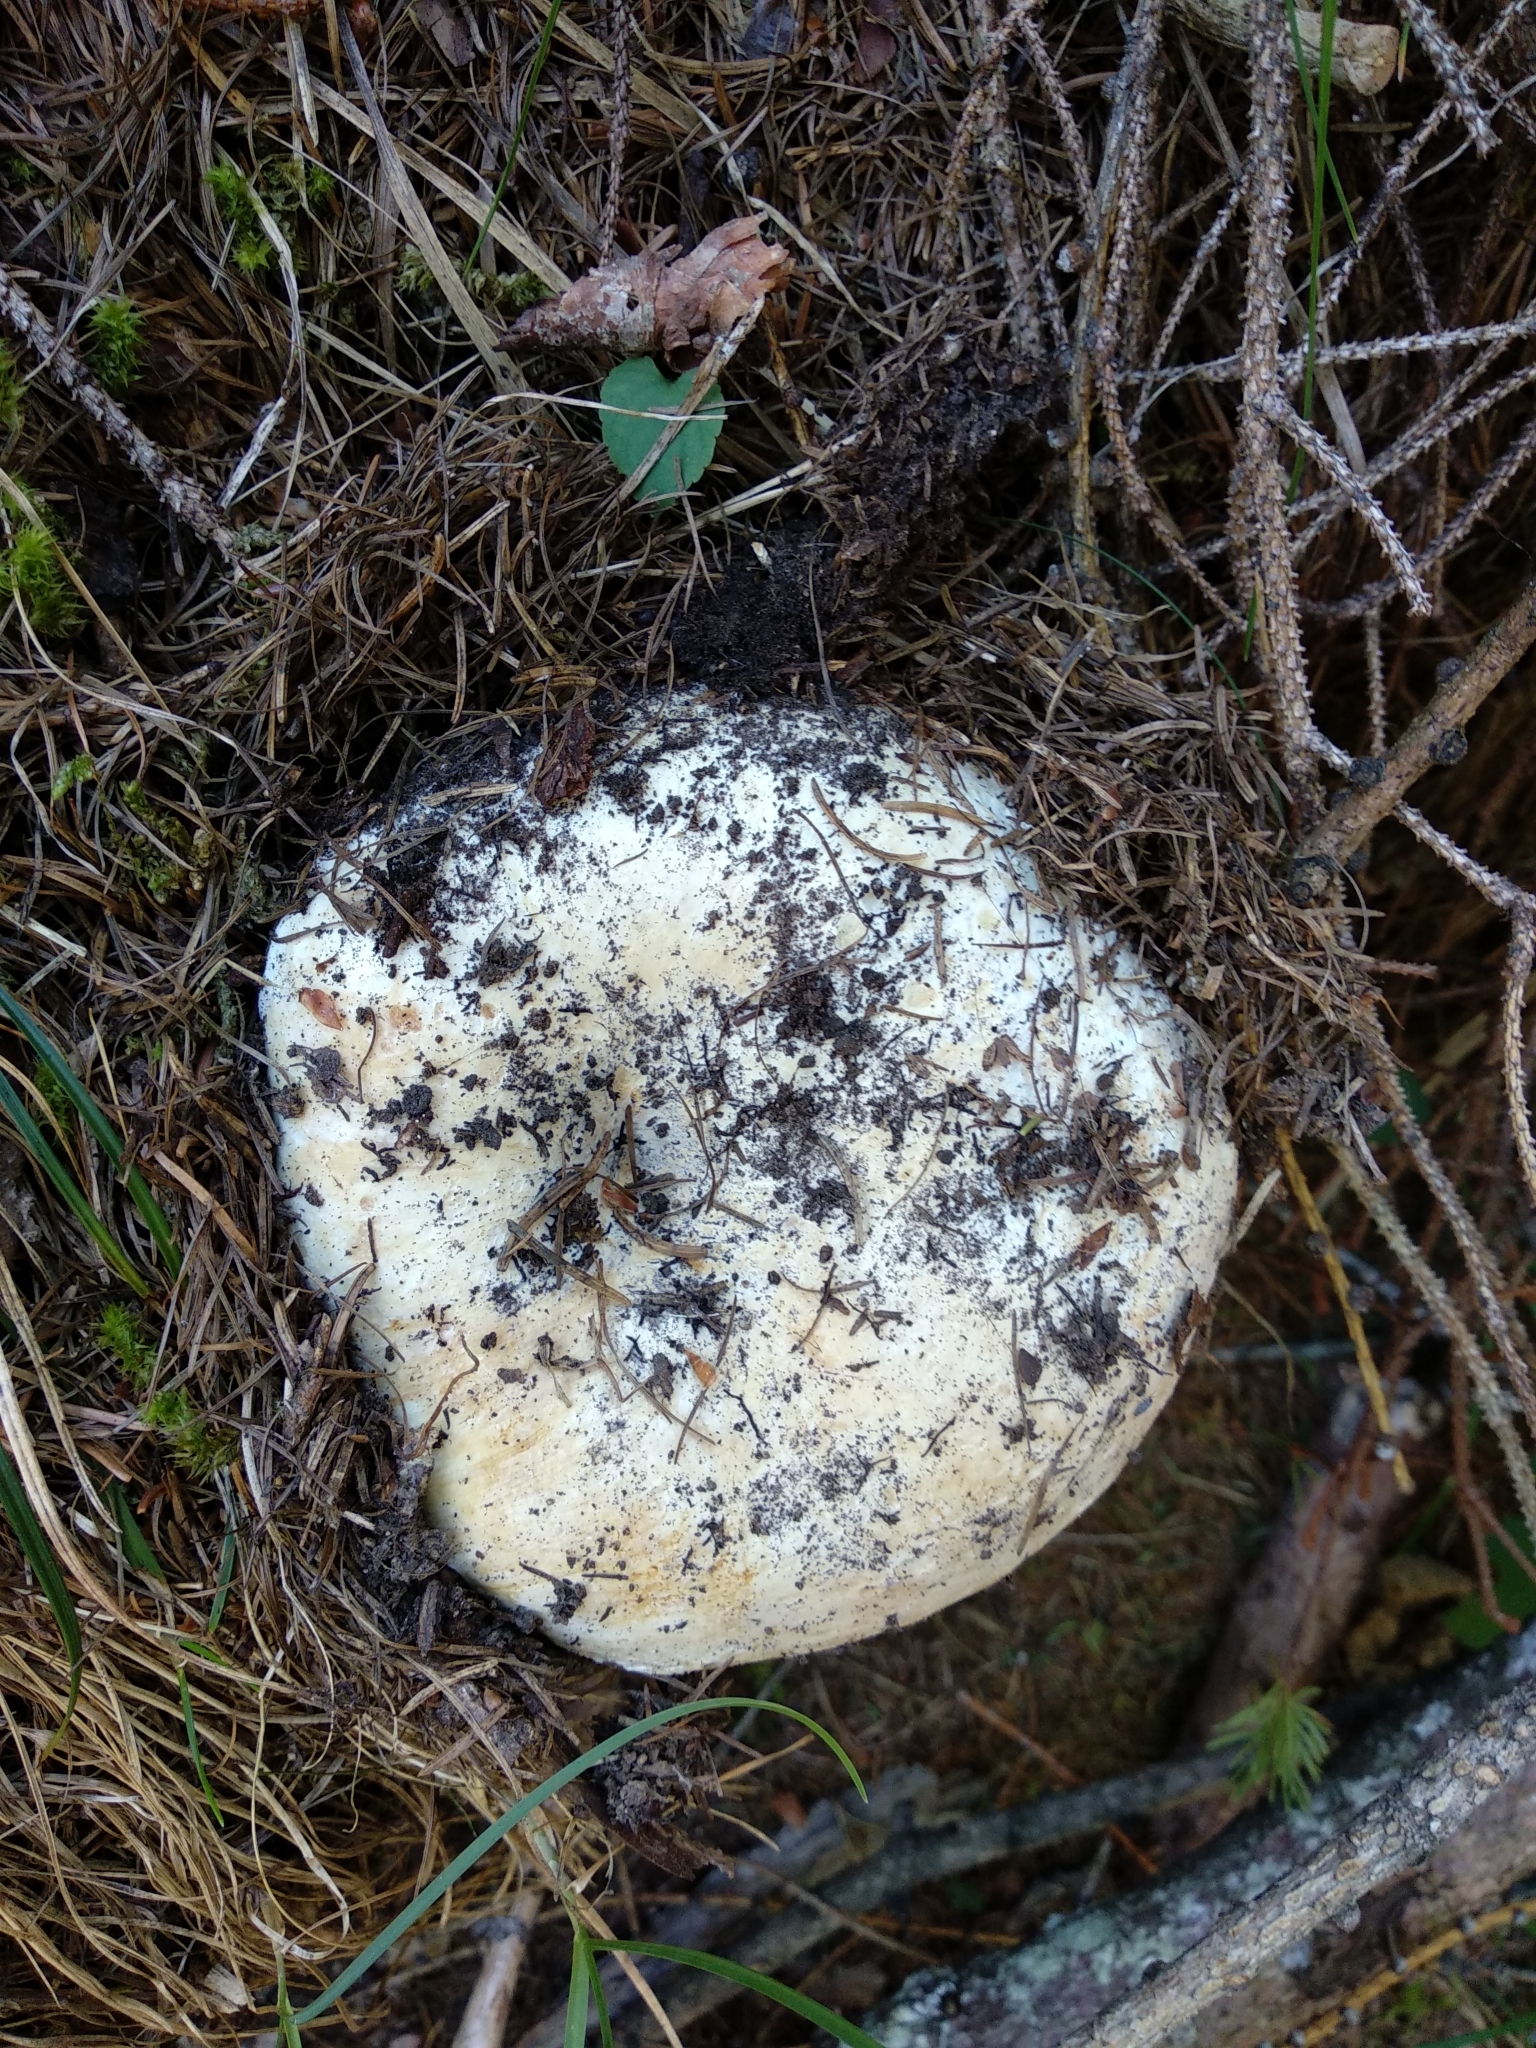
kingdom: Fungi
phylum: Basidiomycota
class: Agaricomycetes
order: Russulales
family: Russulaceae
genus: Russula
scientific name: Russula chloroides
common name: Blue band brittlegill
